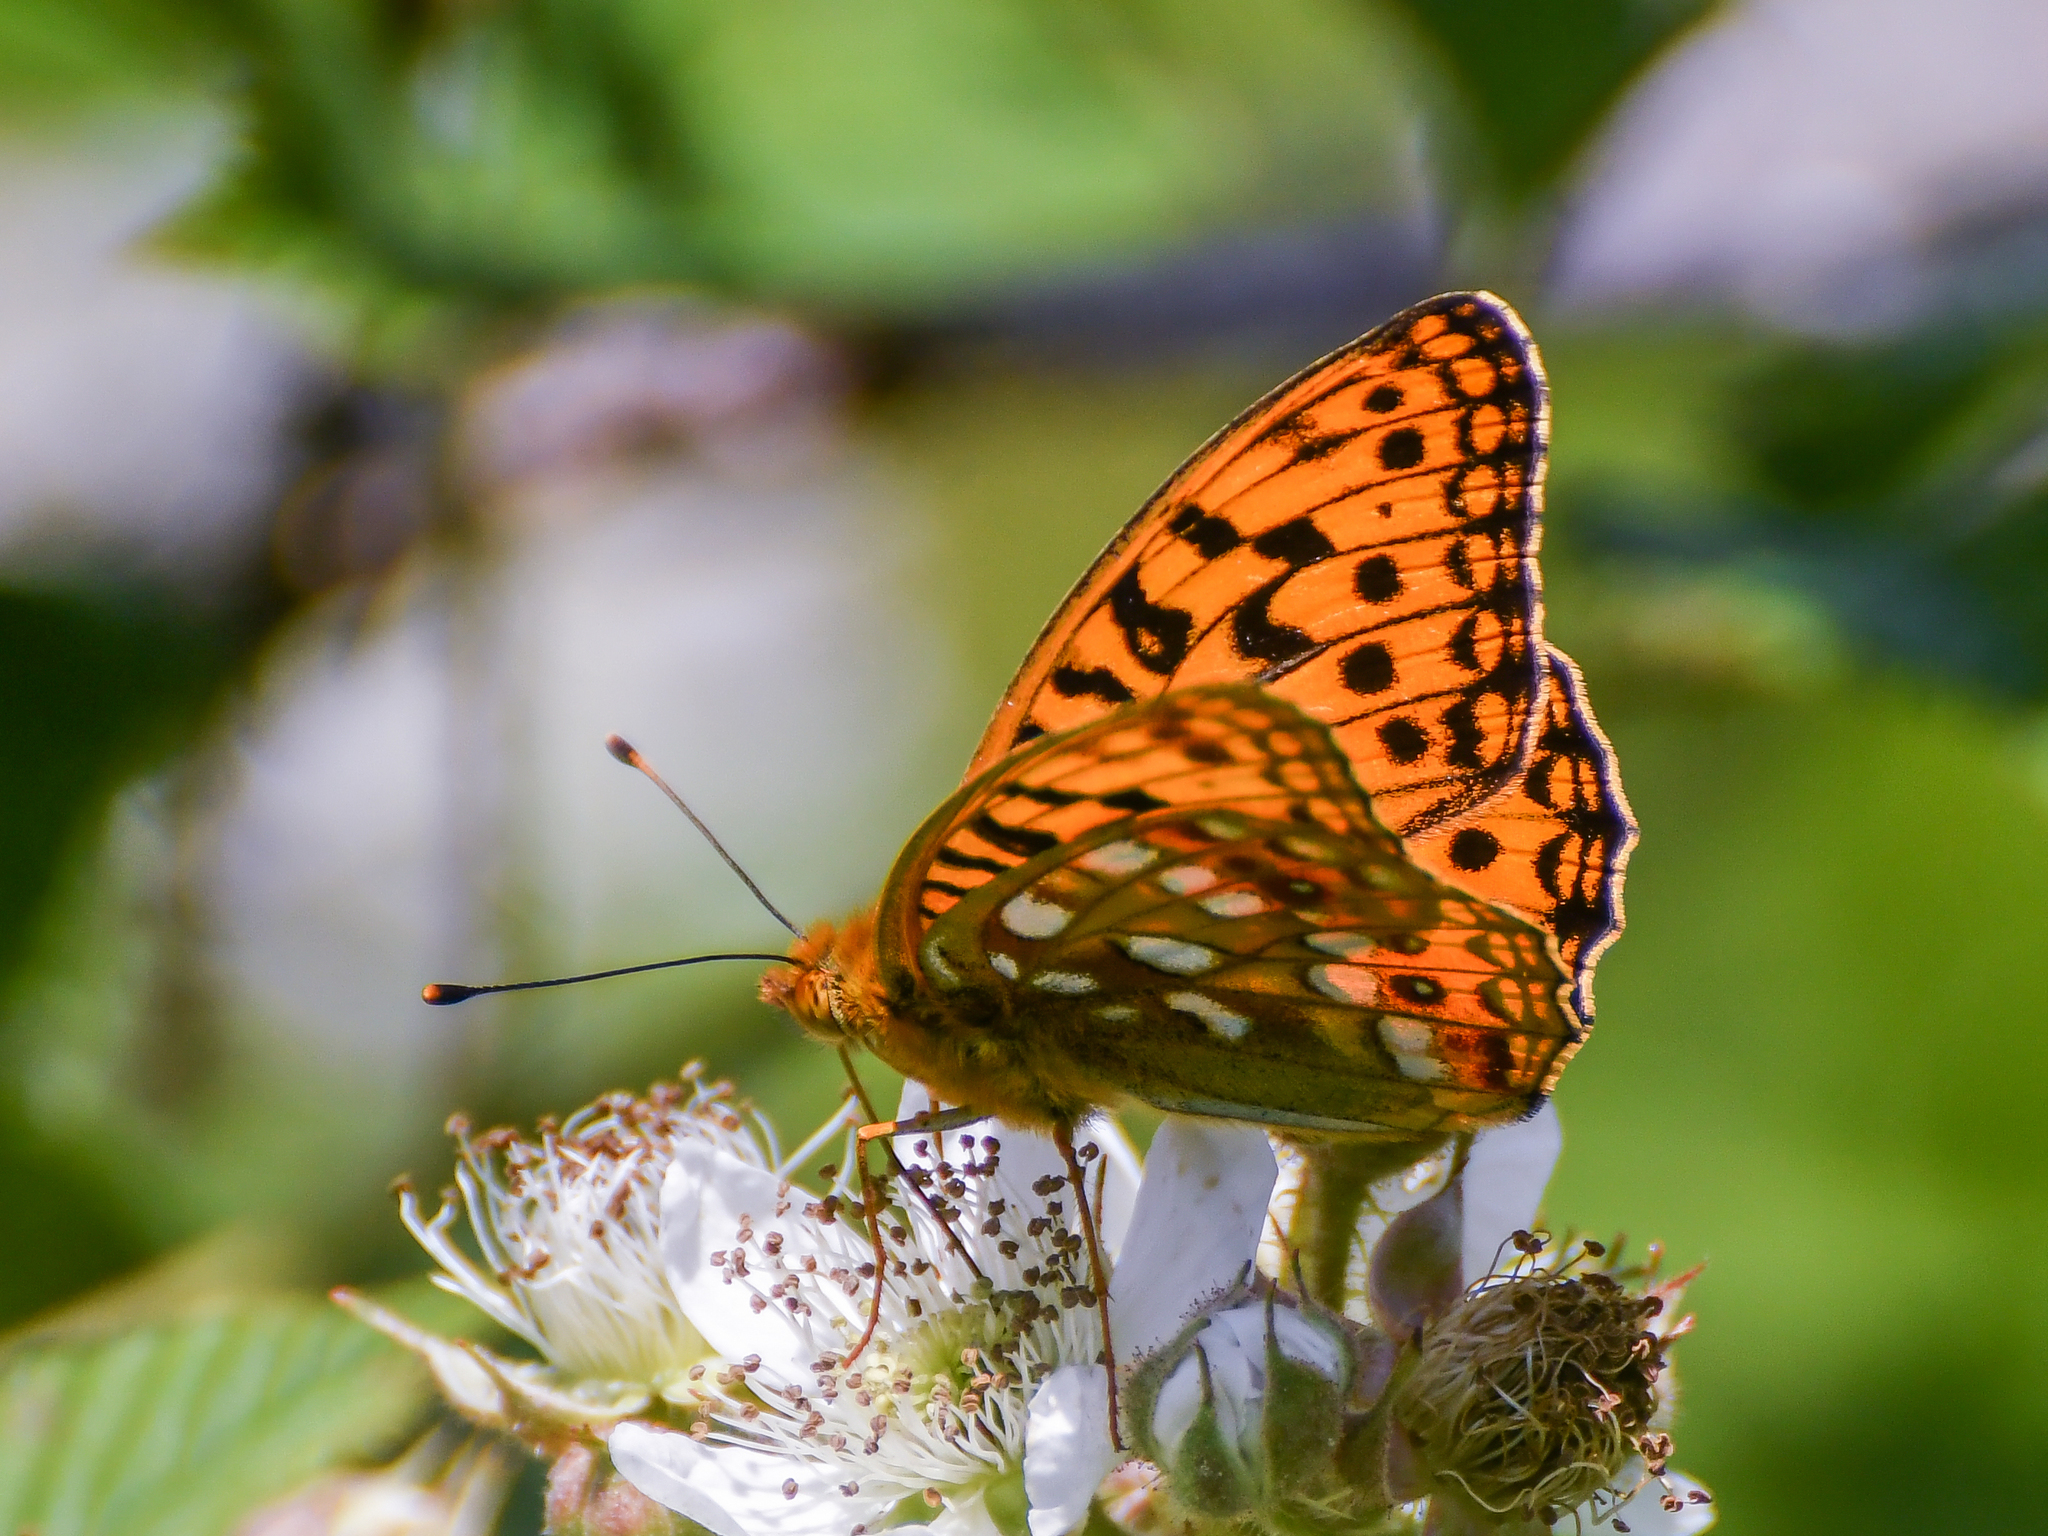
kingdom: Animalia
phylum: Arthropoda
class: Insecta
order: Lepidoptera
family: Nymphalidae
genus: Fabriciana
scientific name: Fabriciana adippe
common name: High brown fritillary
